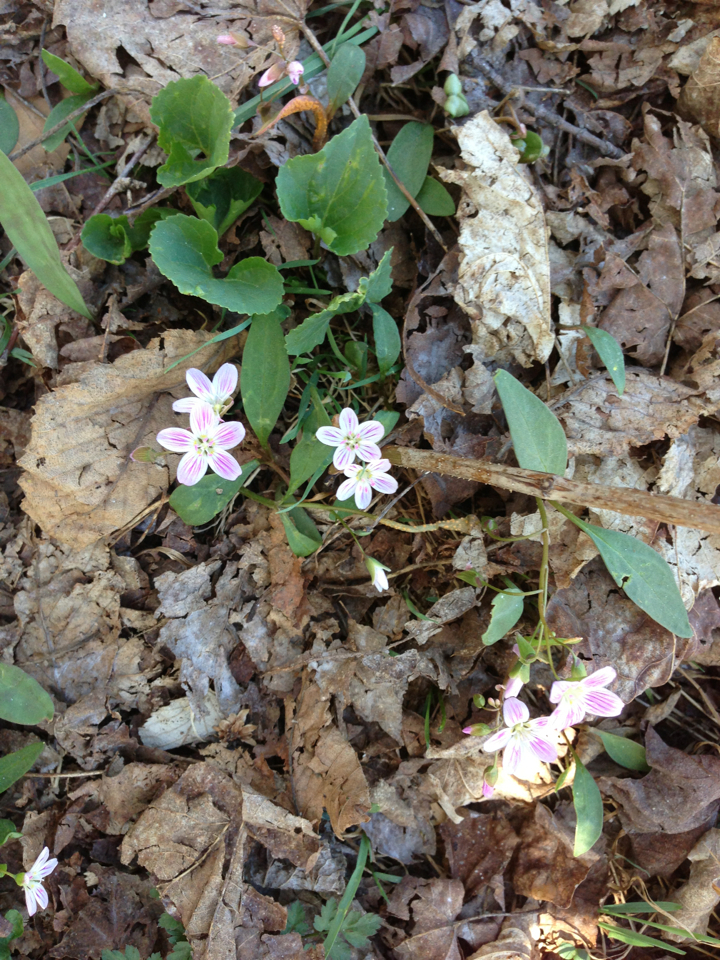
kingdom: Plantae
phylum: Tracheophyta
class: Magnoliopsida
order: Caryophyllales
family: Montiaceae
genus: Claytonia
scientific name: Claytonia caroliniana
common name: Carolina spring beauty
